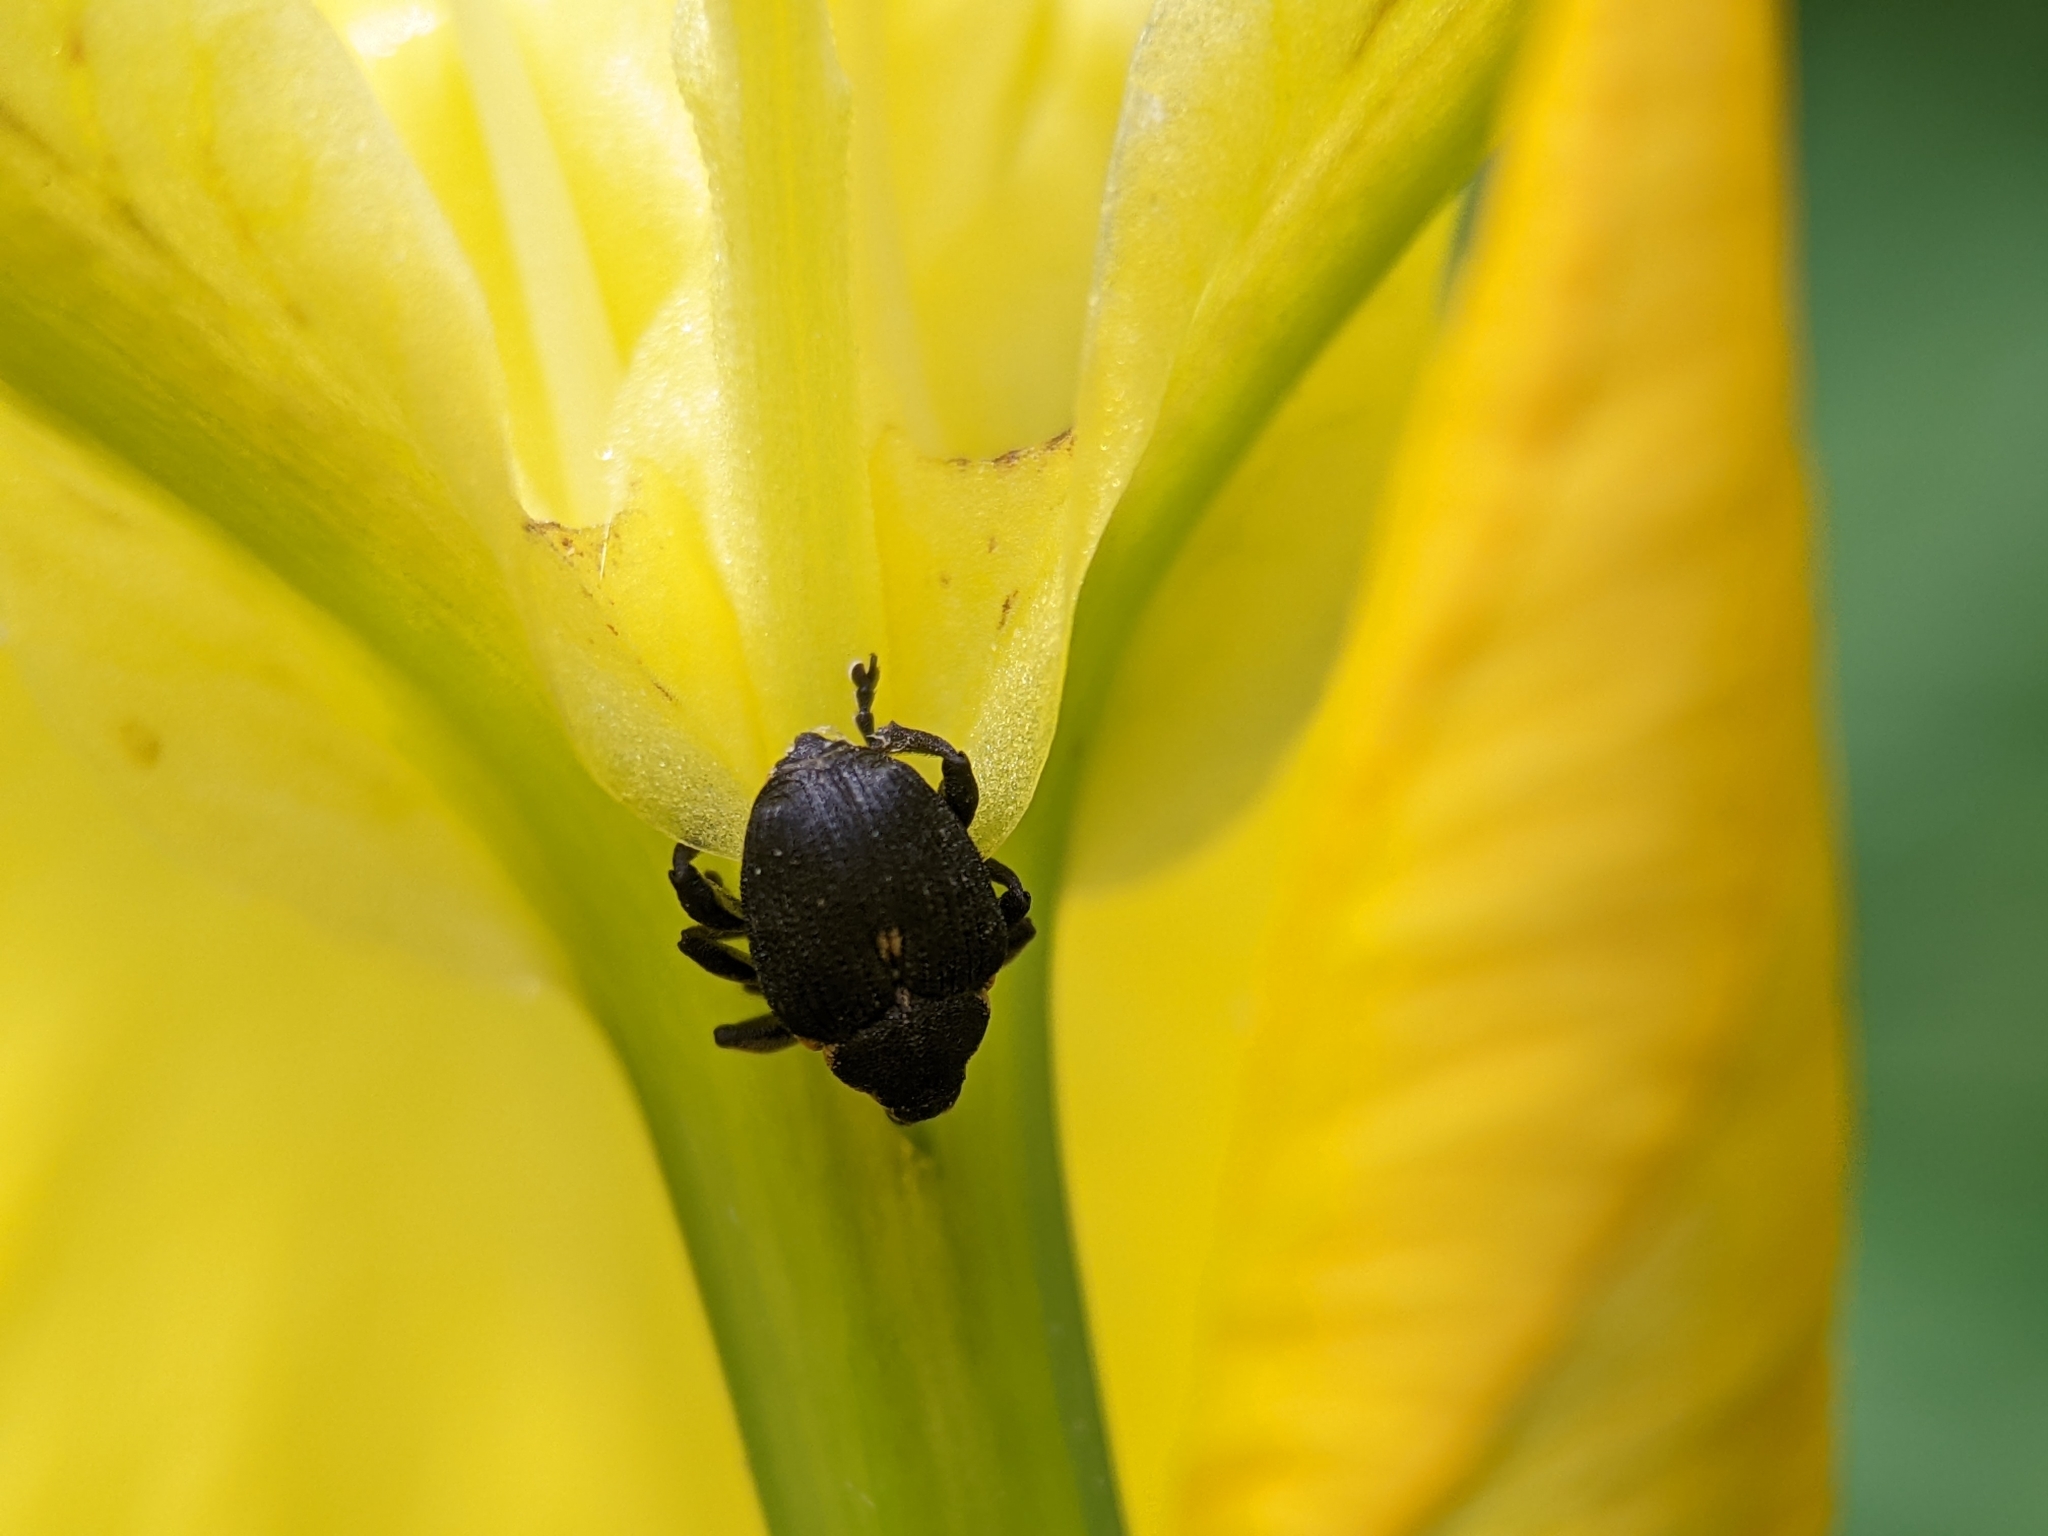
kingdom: Animalia
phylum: Arthropoda
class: Insecta
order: Coleoptera
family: Curculionidae
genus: Mononychus
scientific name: Mononychus punctumalbum
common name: Iris weevil
